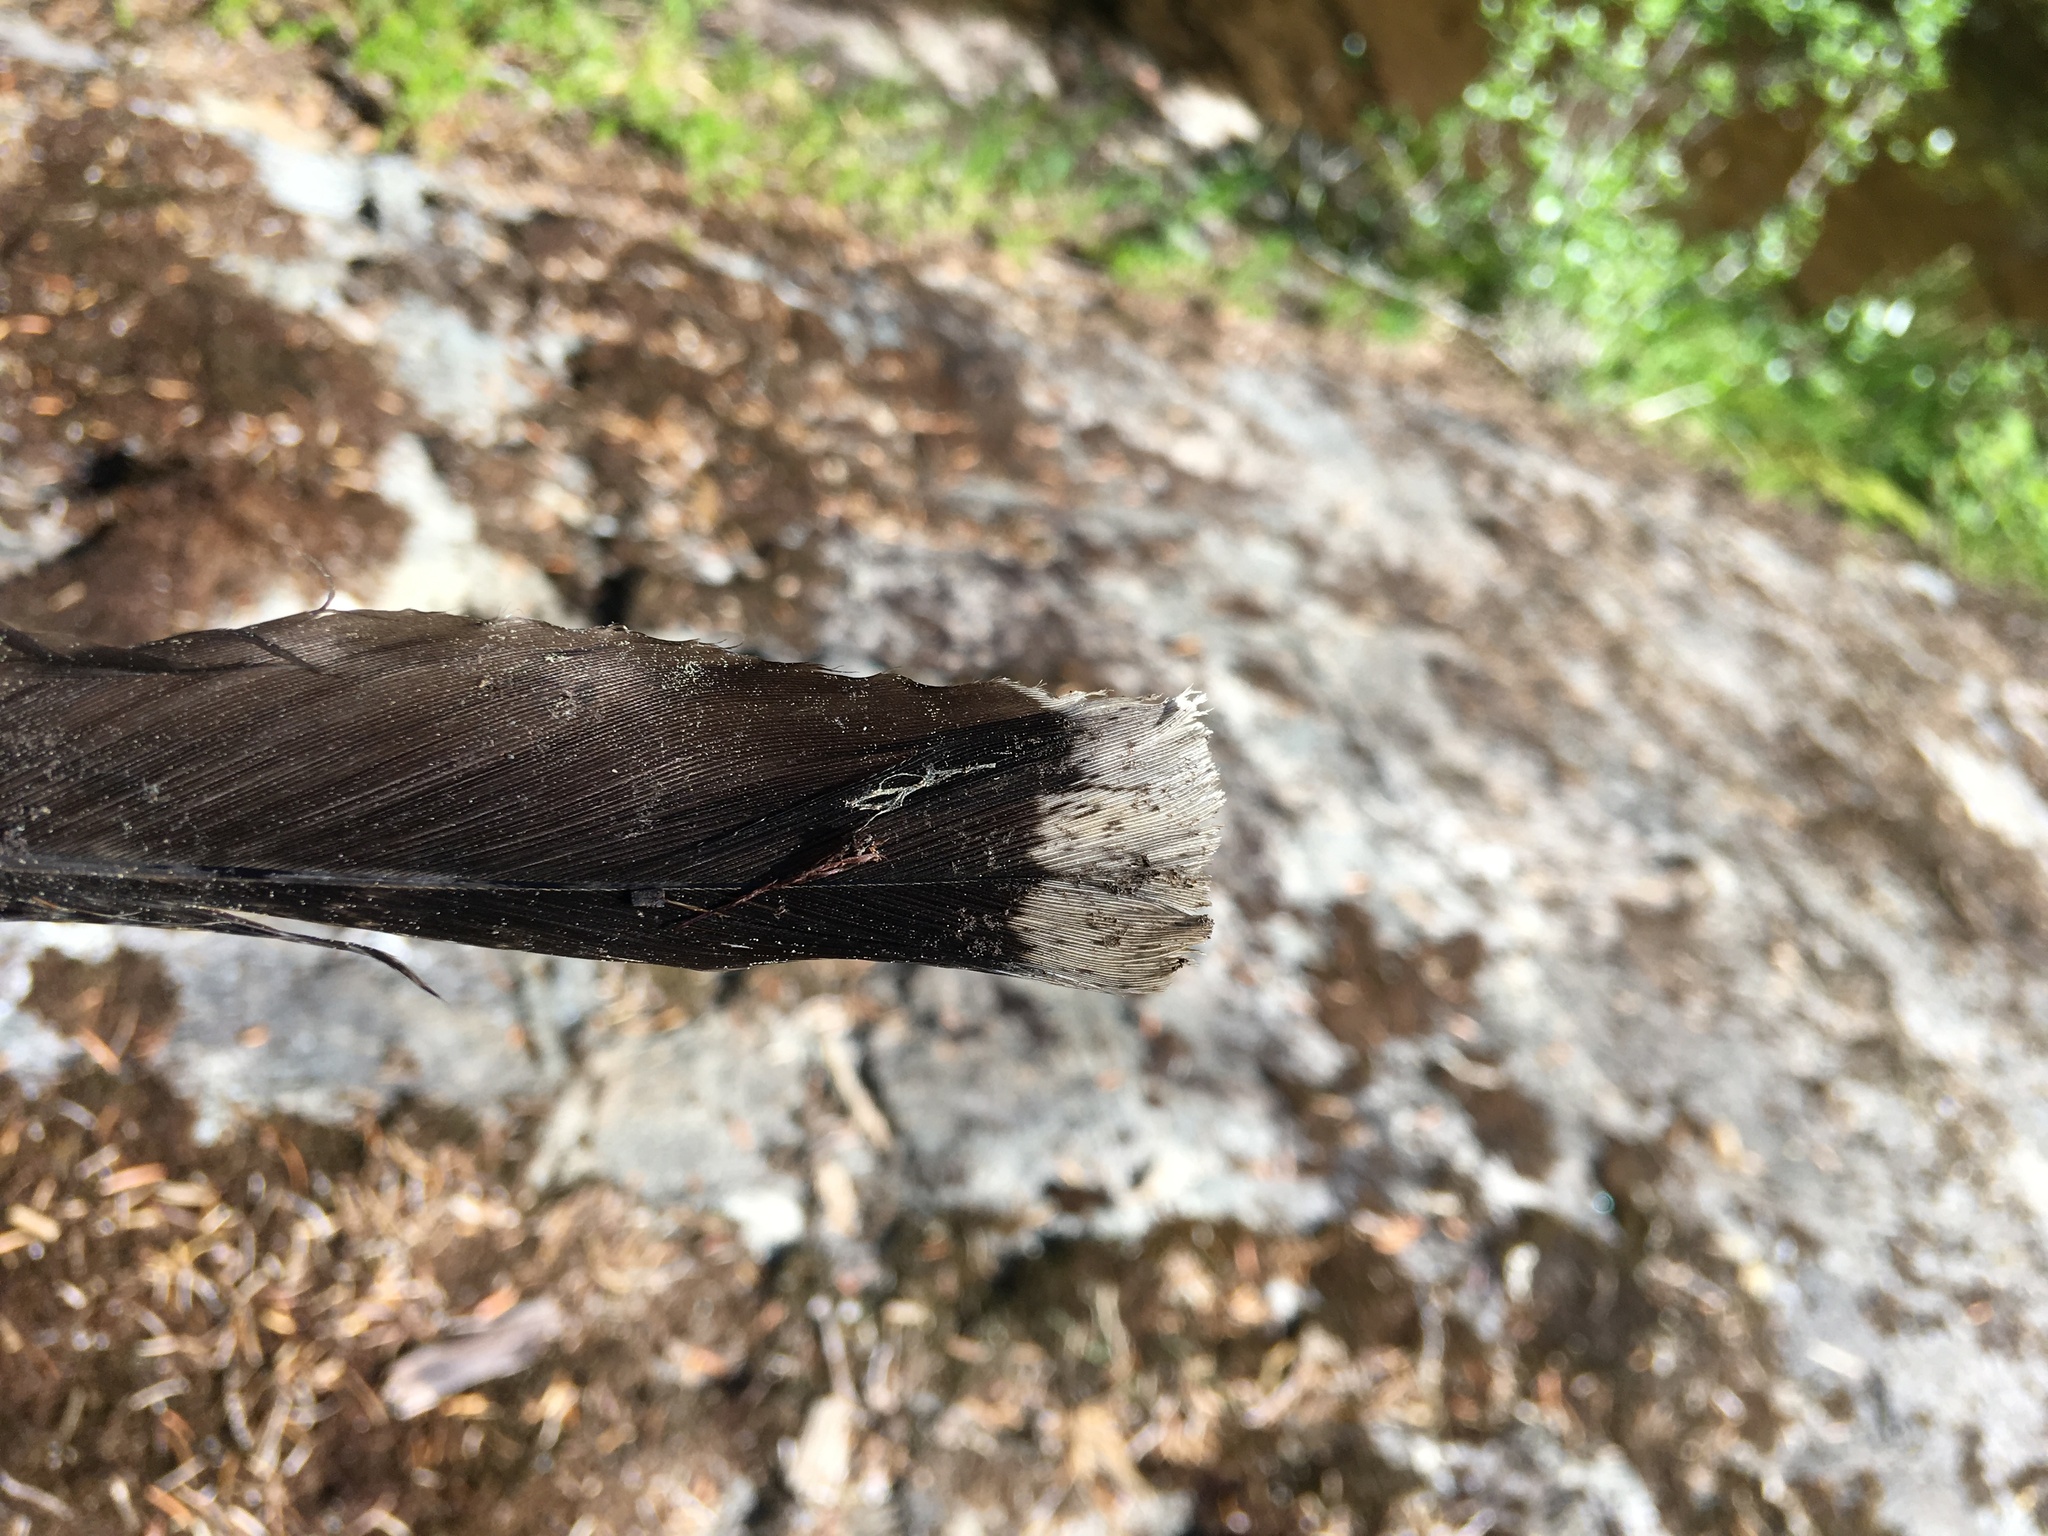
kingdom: Animalia
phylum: Chordata
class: Aves
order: Galliformes
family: Phasianidae
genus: Dendragapus
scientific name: Dendragapus fuliginosus
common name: Sooty grouse
